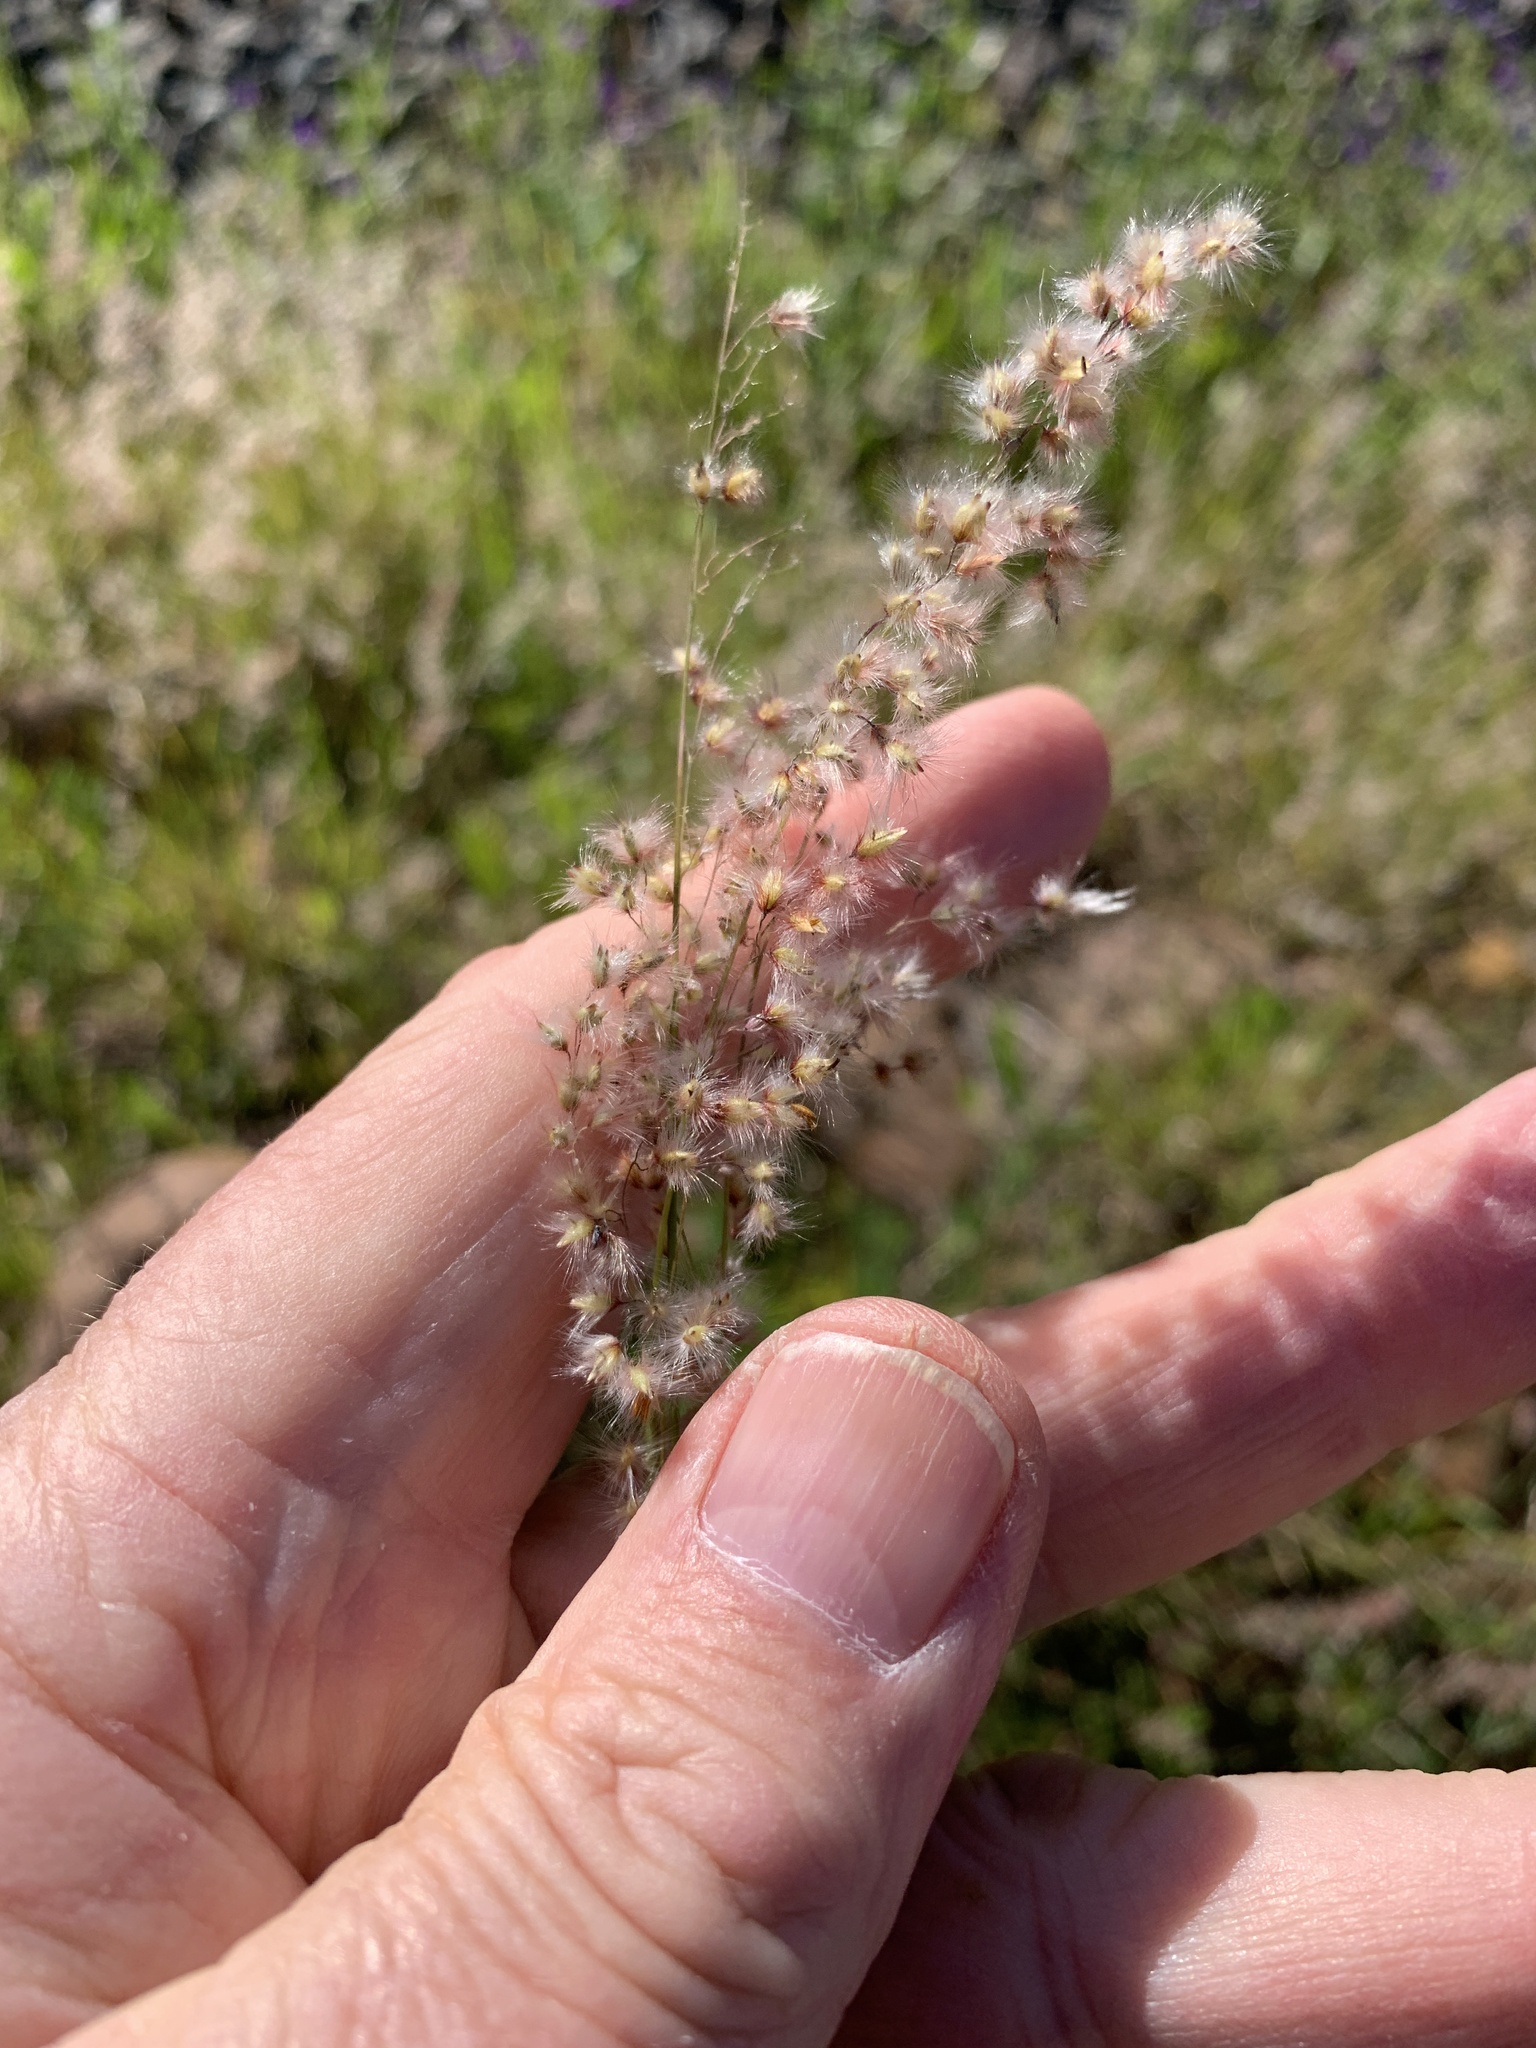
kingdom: Plantae
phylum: Tracheophyta
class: Liliopsida
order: Poales
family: Poaceae
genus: Melinis
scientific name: Melinis repens
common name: Rose natal grass
